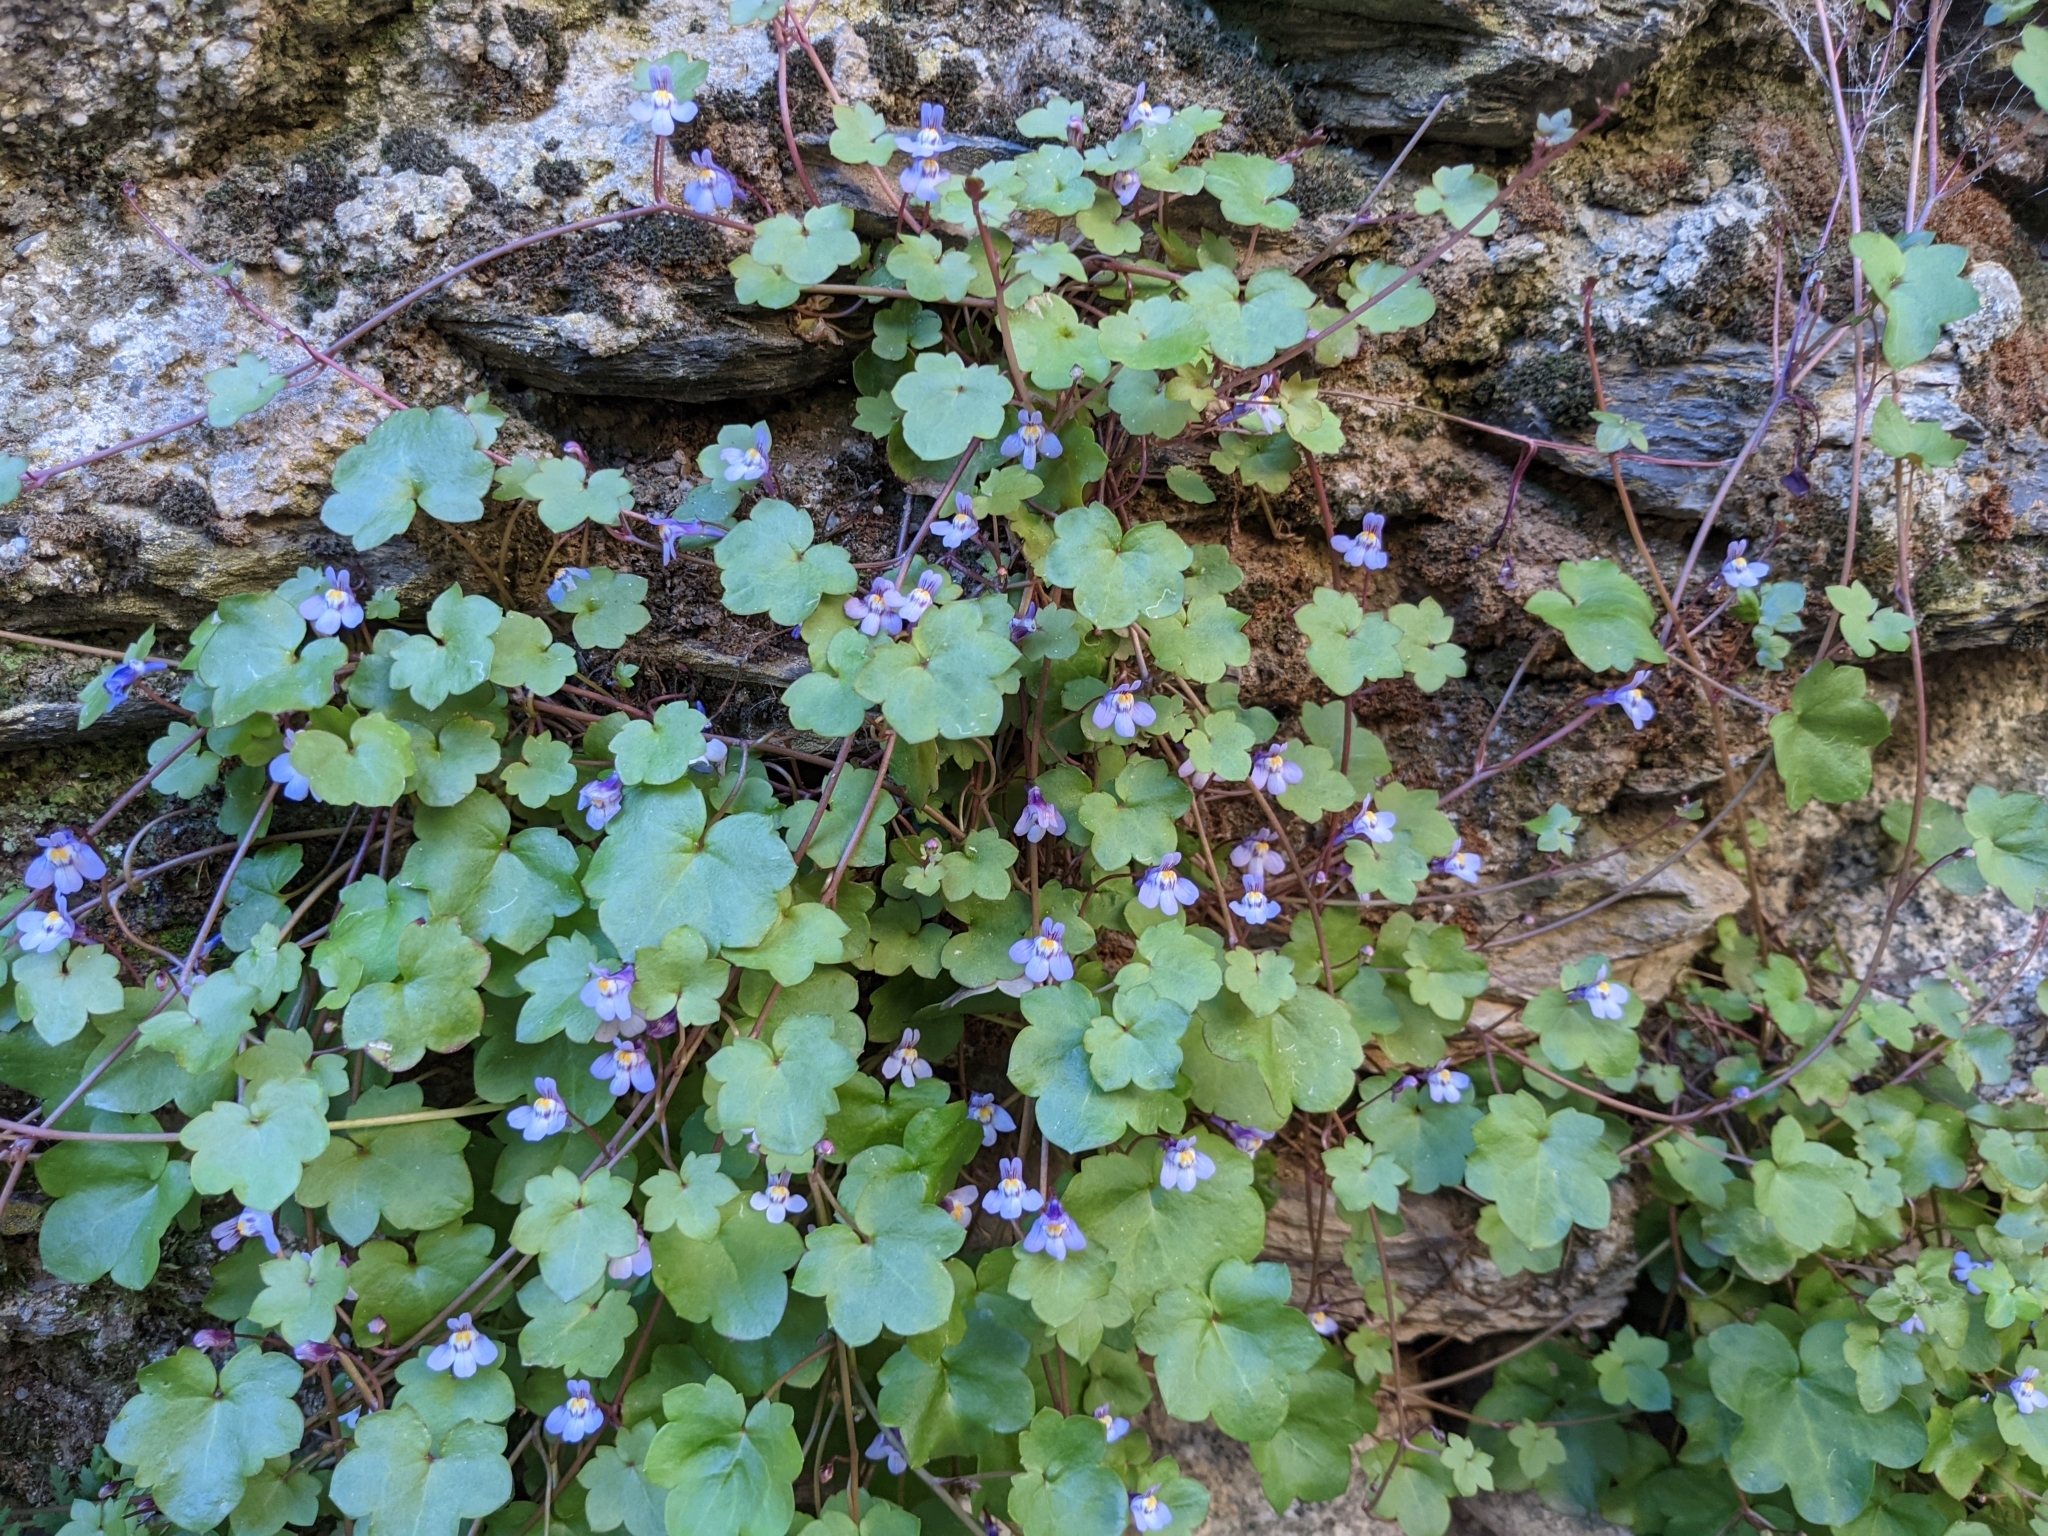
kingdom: Plantae
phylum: Tracheophyta
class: Magnoliopsida
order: Lamiales
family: Plantaginaceae
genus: Cymbalaria
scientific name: Cymbalaria muralis
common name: Ivy-leaved toadflax
